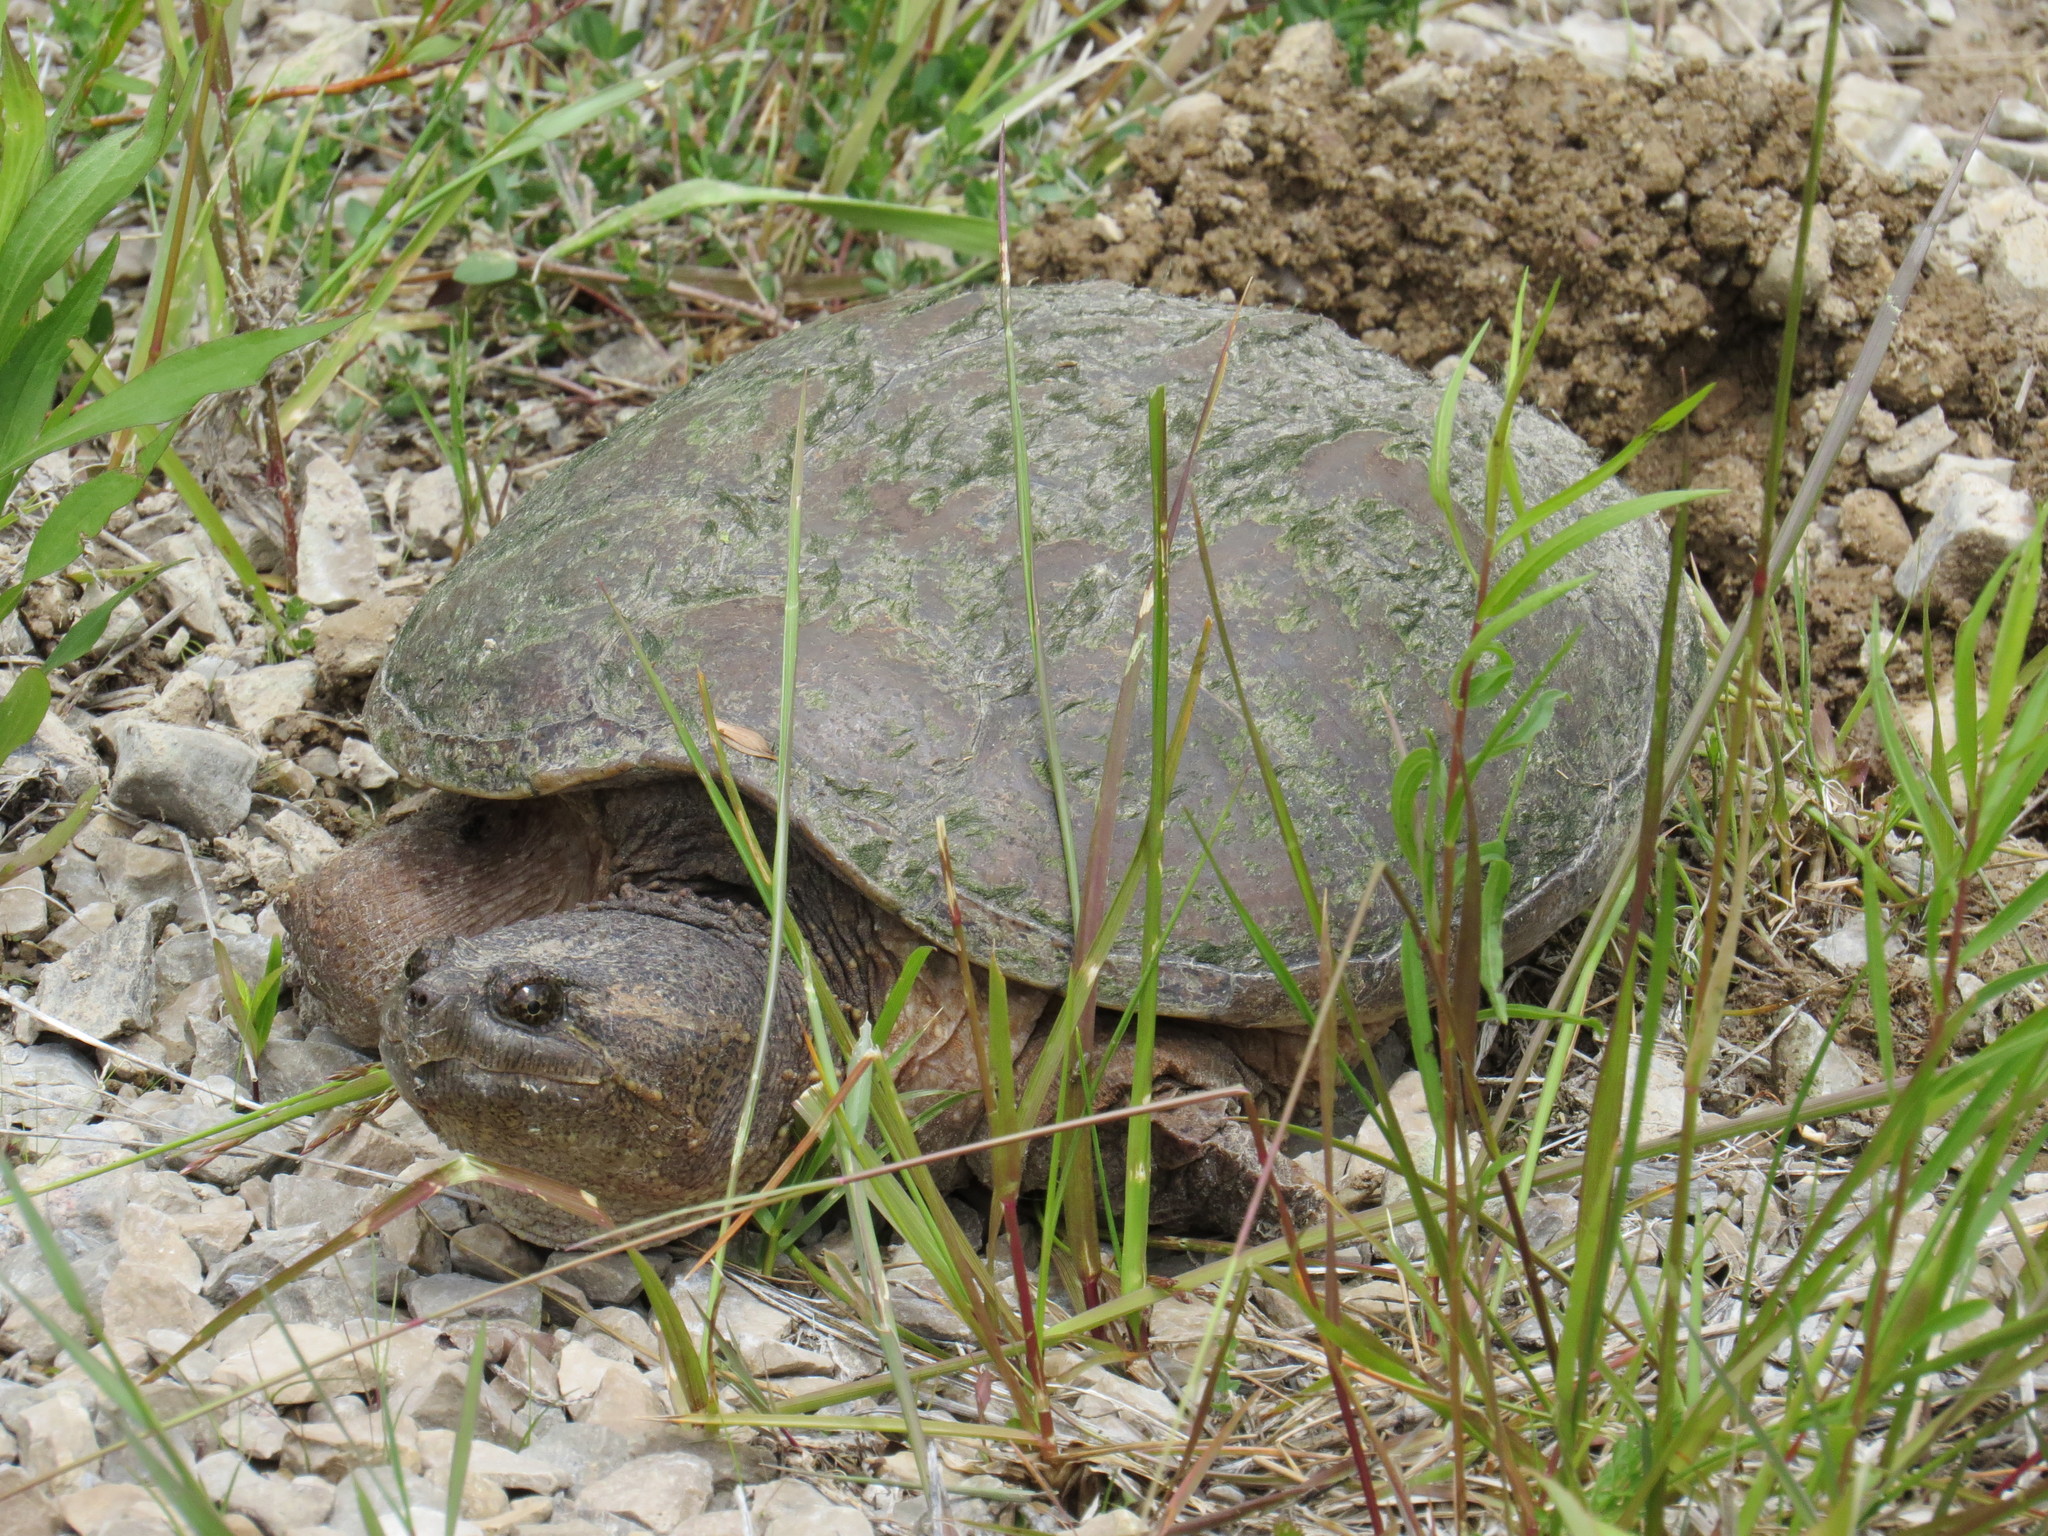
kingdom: Animalia
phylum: Chordata
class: Testudines
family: Chelydridae
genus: Chelydra
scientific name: Chelydra serpentina
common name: Common snapping turtle
